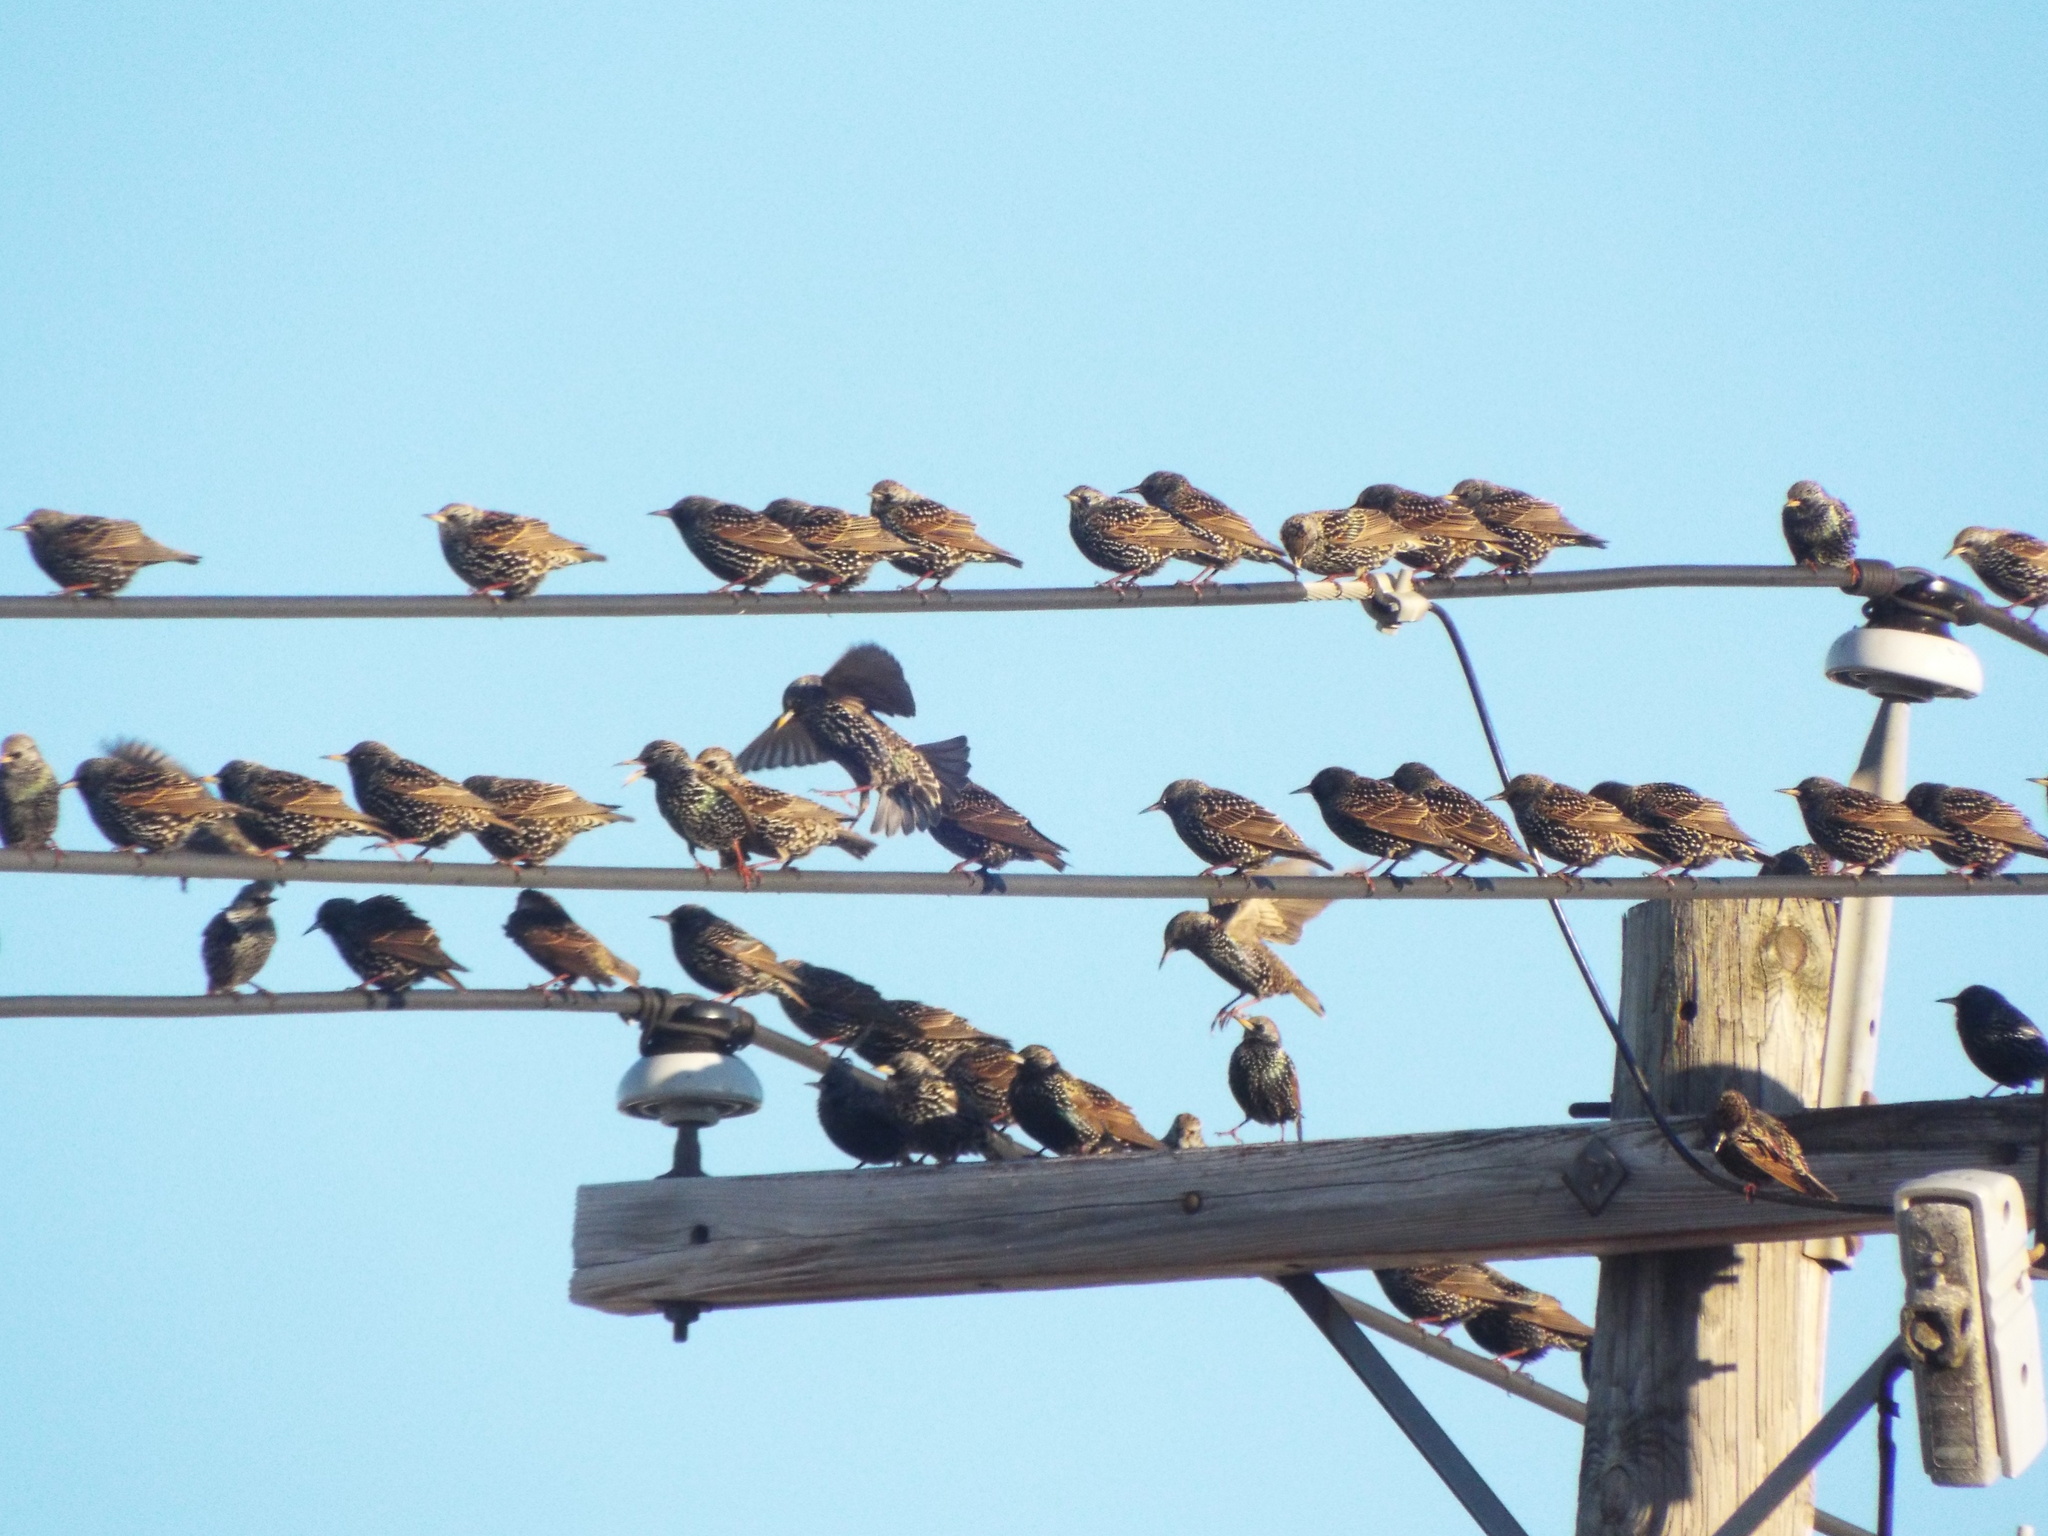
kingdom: Animalia
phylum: Chordata
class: Aves
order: Passeriformes
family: Sturnidae
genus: Sturnus
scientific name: Sturnus vulgaris
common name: Common starling
